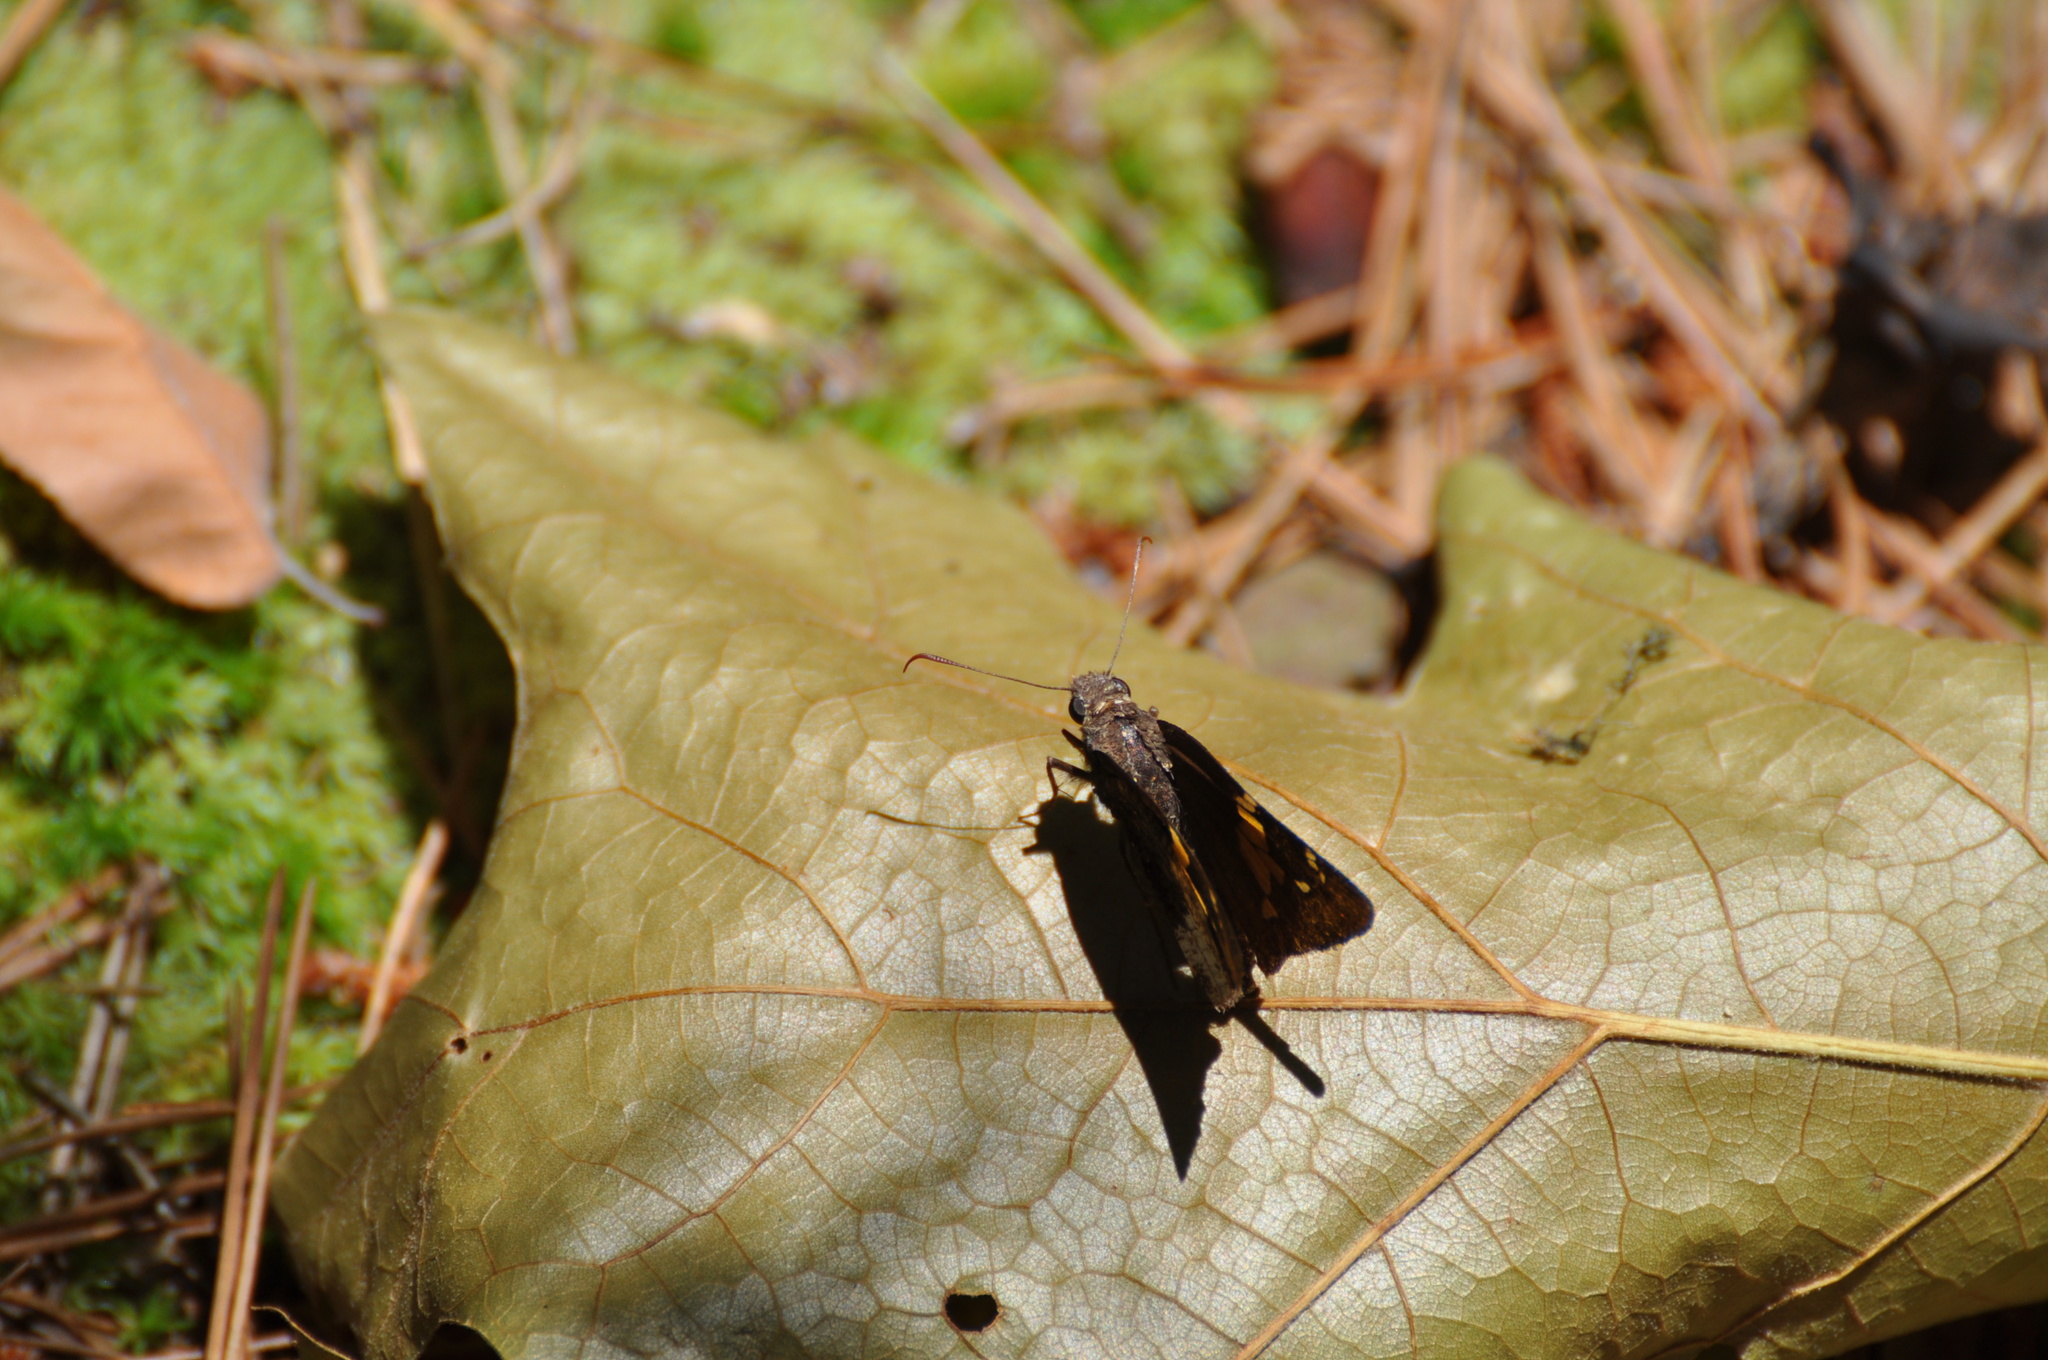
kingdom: Animalia
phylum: Arthropoda
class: Insecta
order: Lepidoptera
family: Hesperiidae
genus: Thorybes
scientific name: Thorybes lyciades
